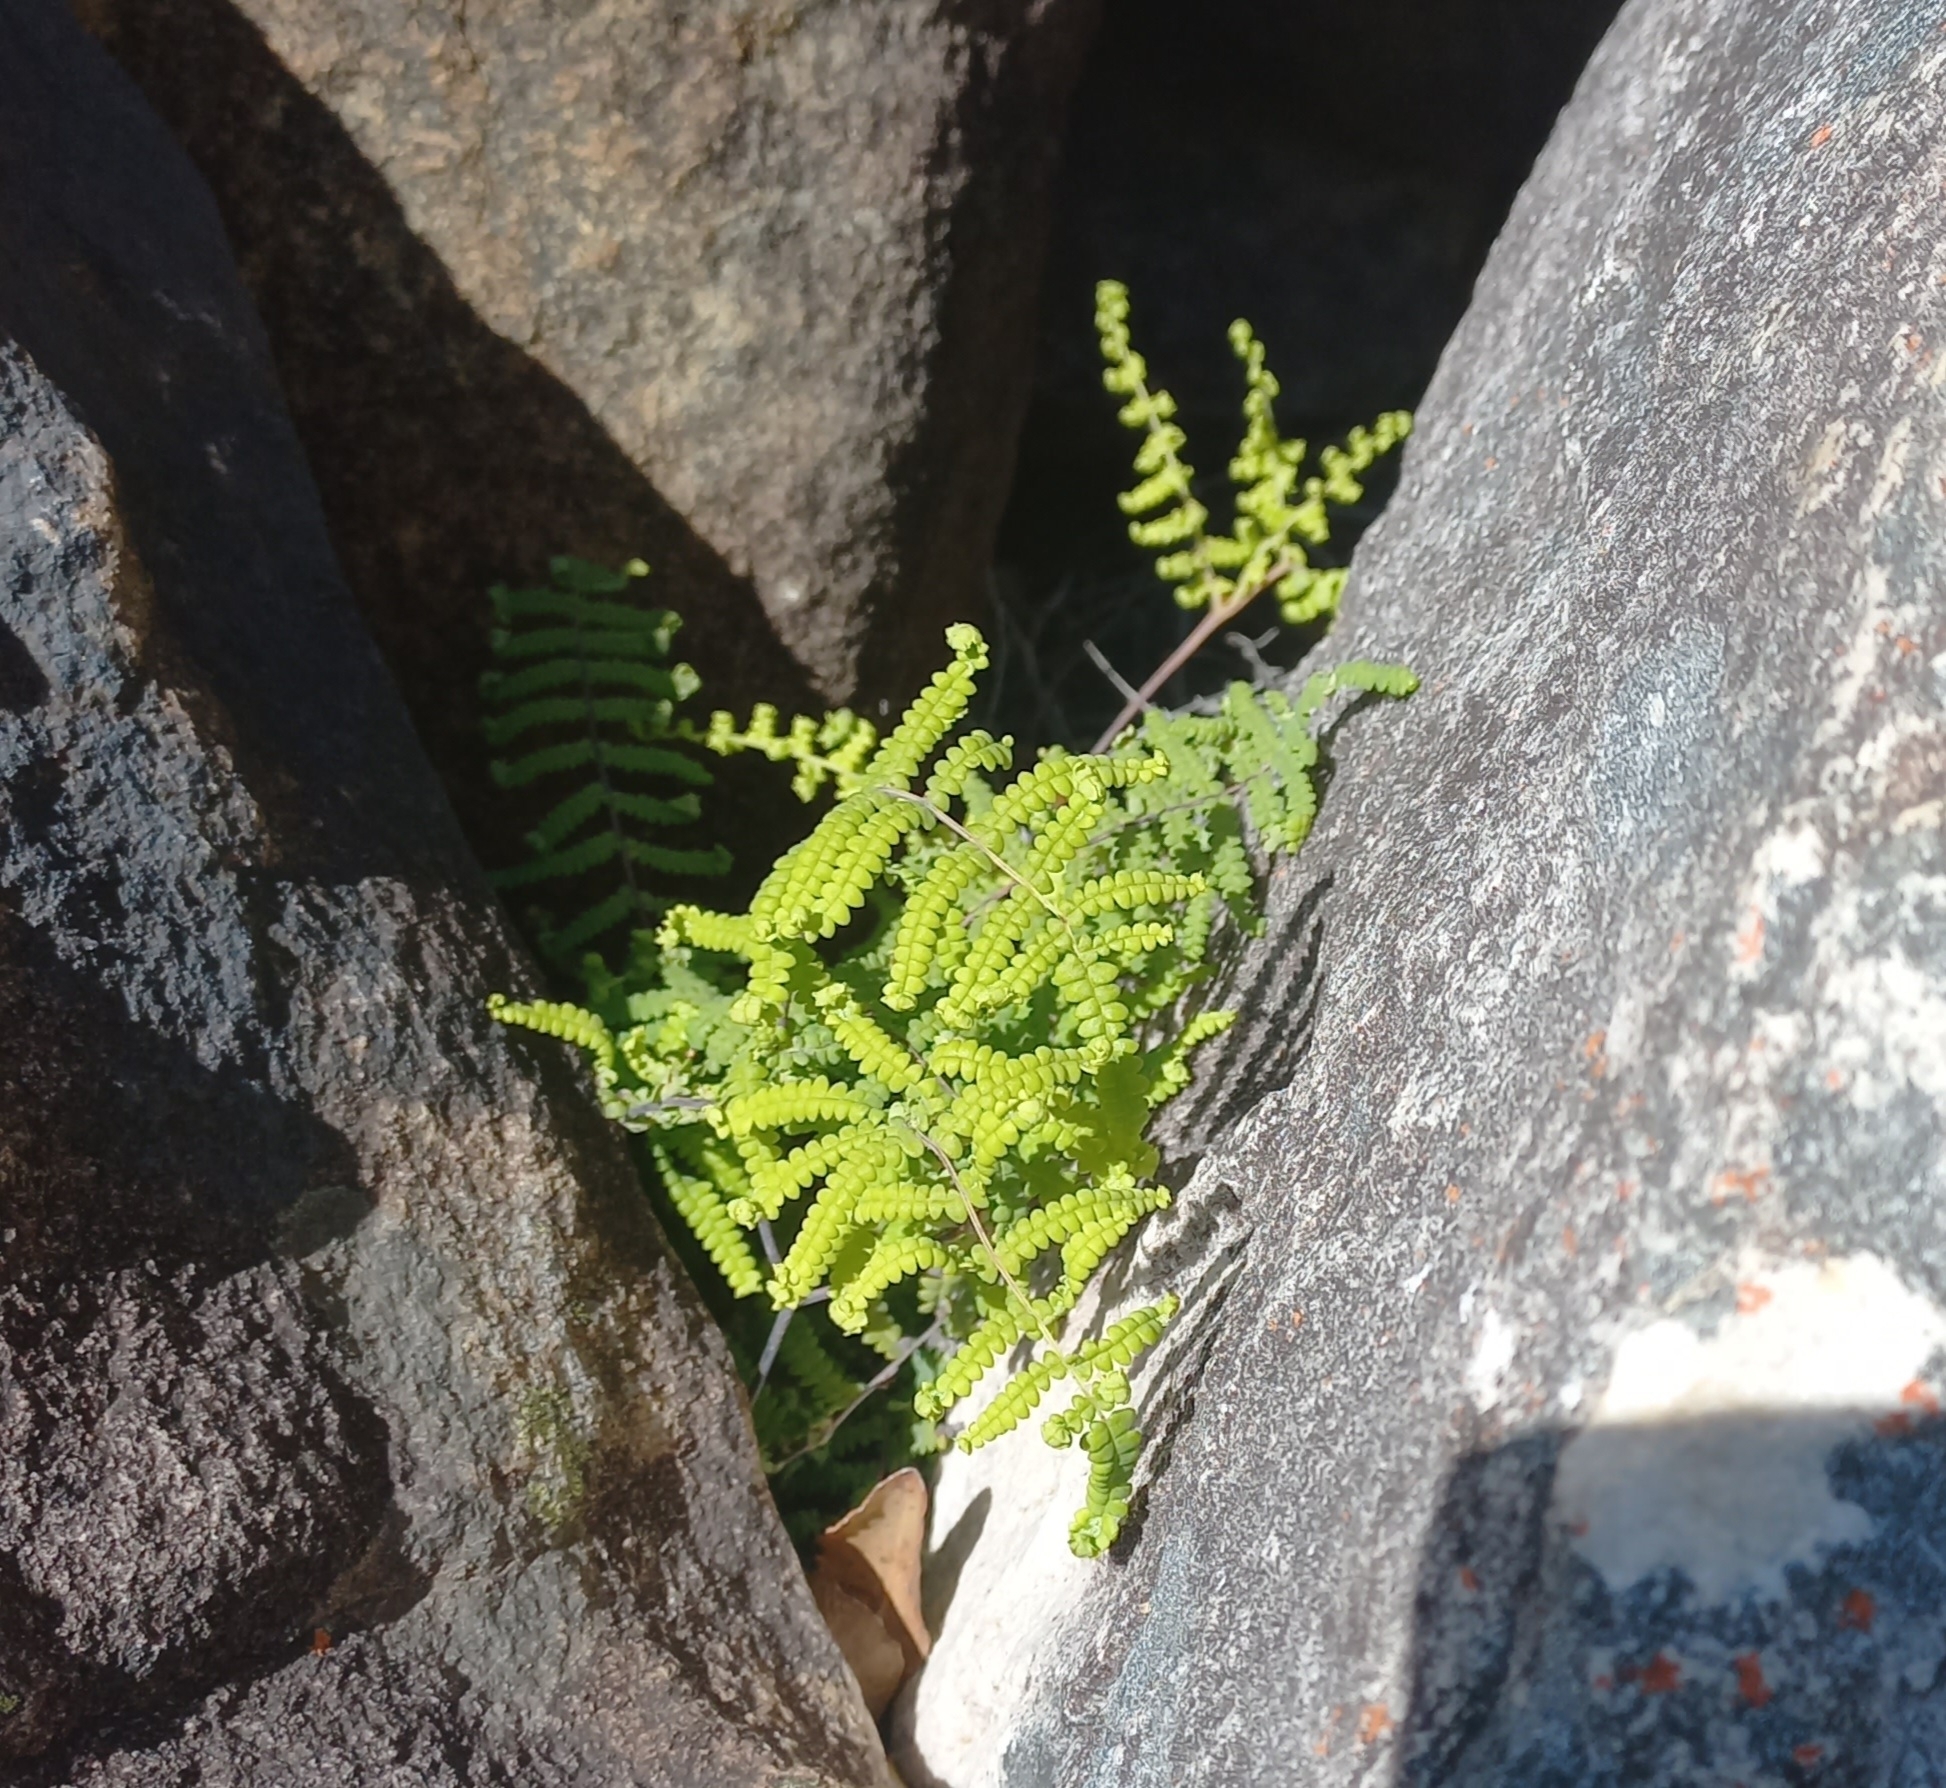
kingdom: Plantae
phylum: Tracheophyta
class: Polypodiopsida
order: Gleicheniales
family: Gleicheniaceae
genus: Gleichenia
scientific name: Gleichenia polypodioides
